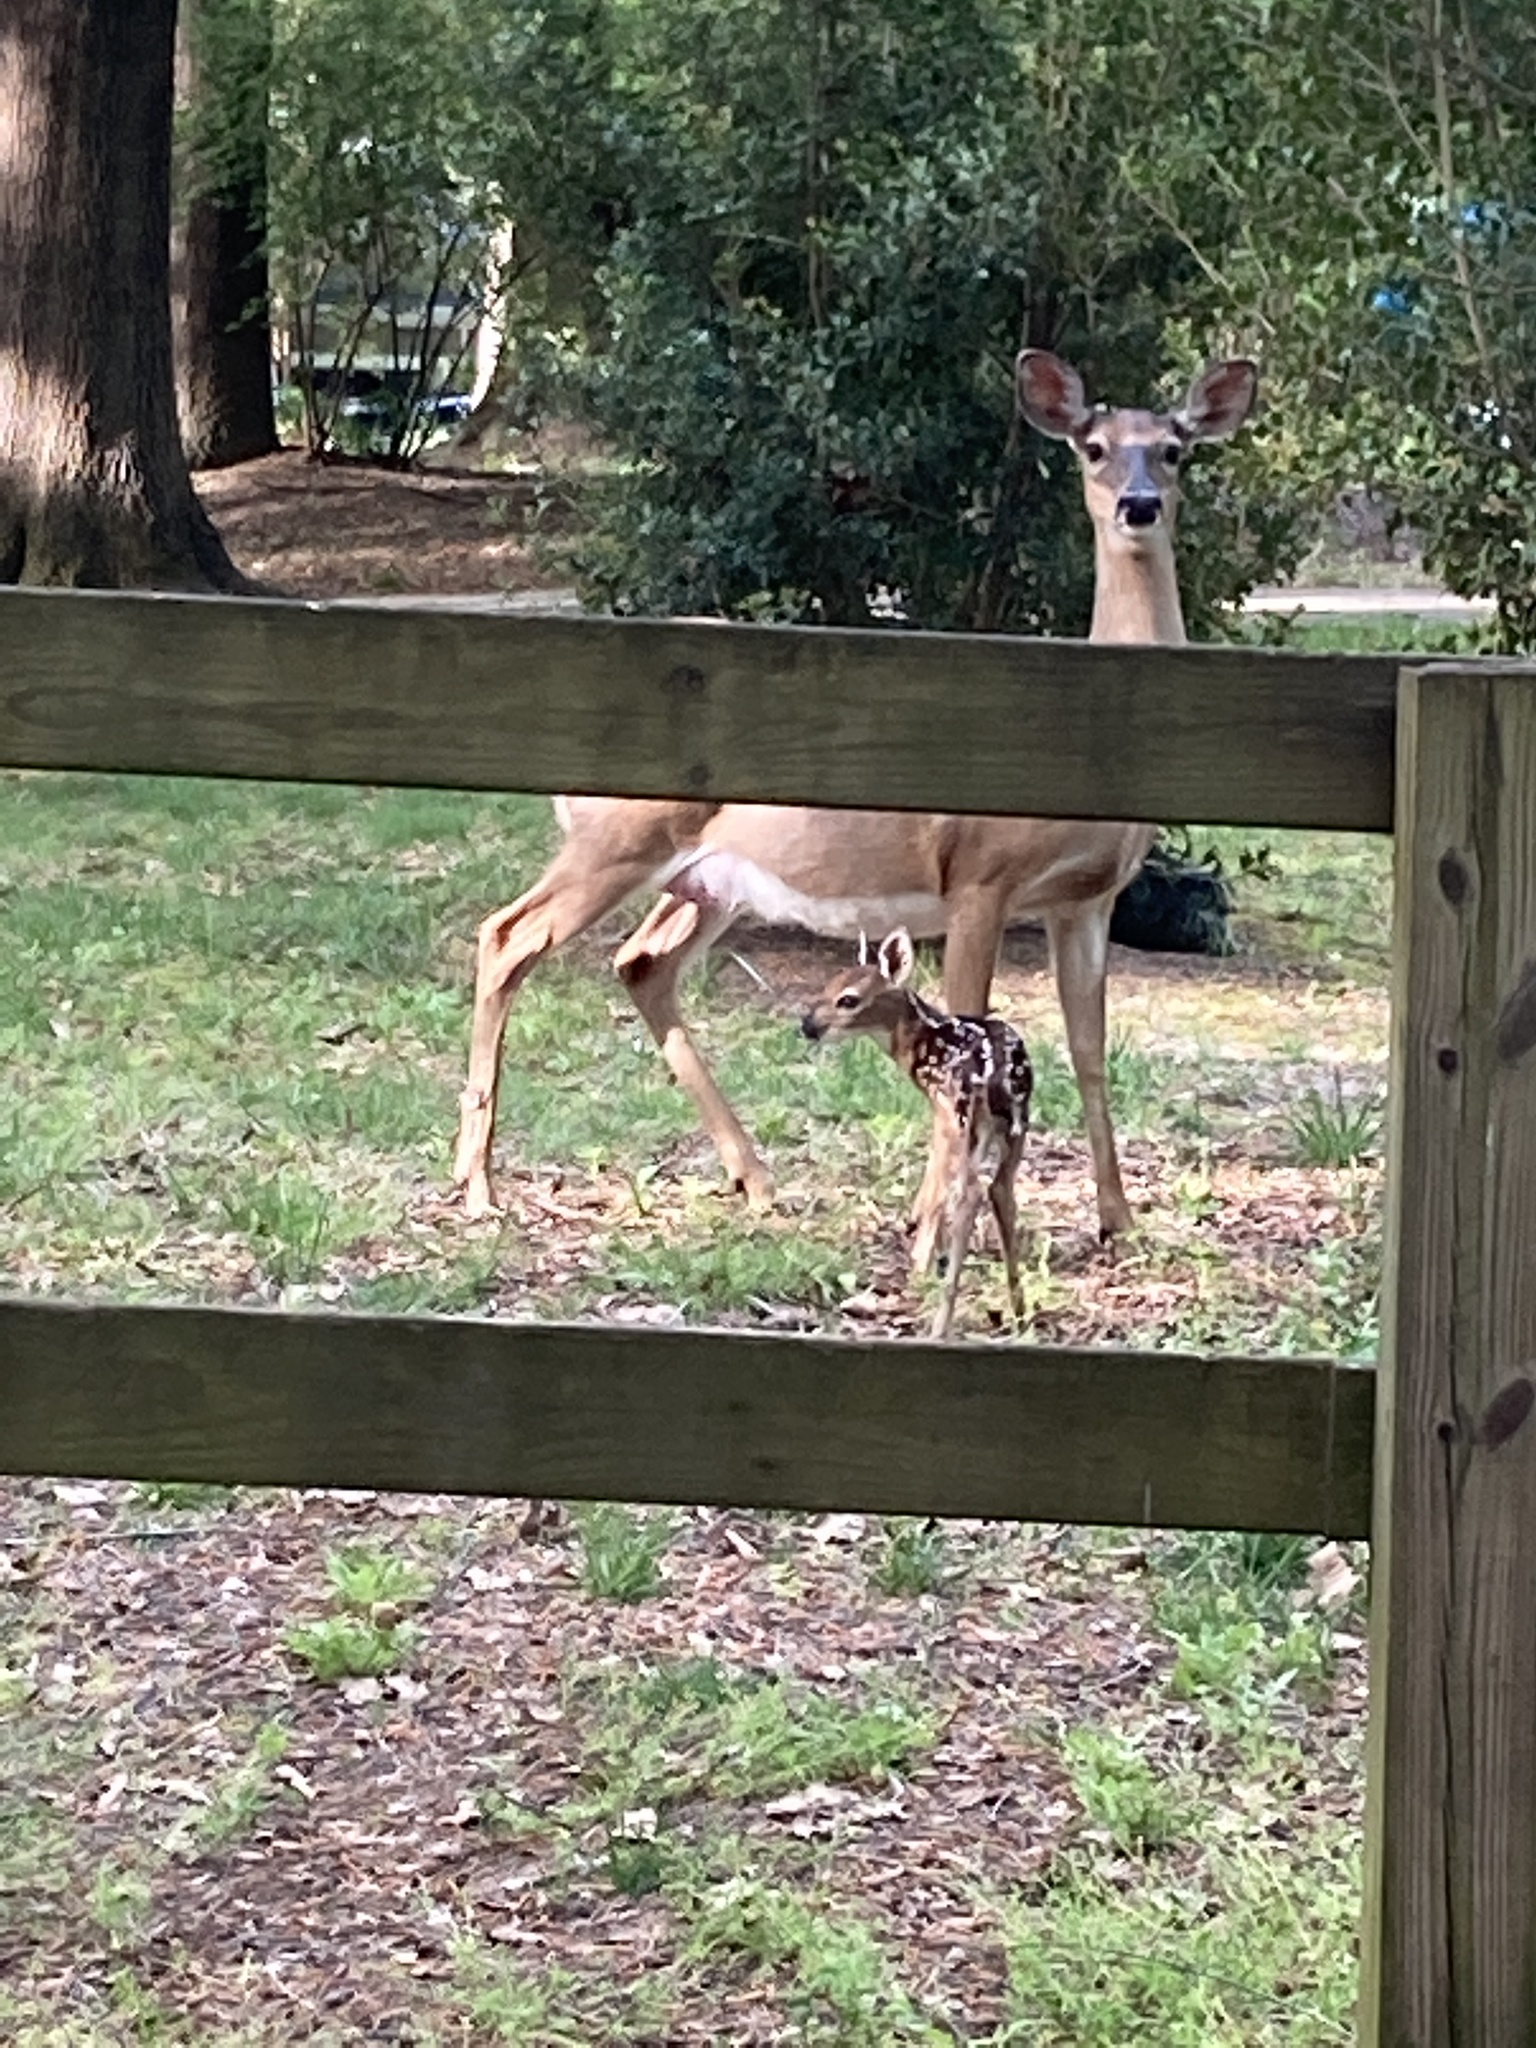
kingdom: Animalia
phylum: Chordata
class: Mammalia
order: Artiodactyla
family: Cervidae
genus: Odocoileus
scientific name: Odocoileus virginianus
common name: White-tailed deer
